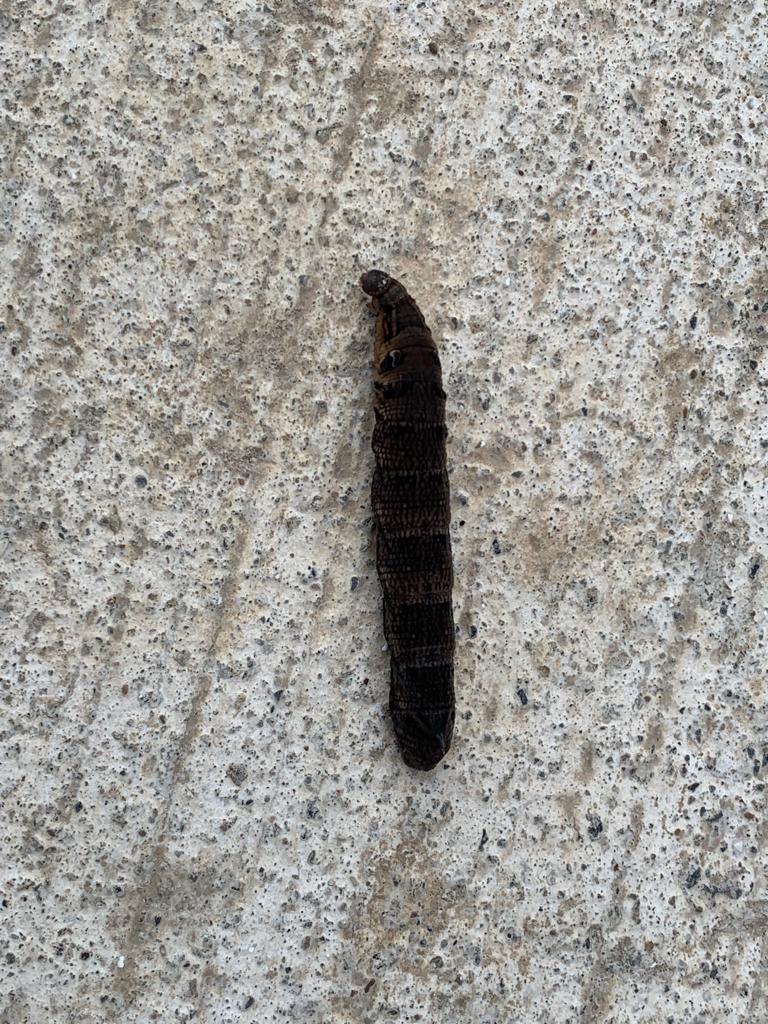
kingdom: Animalia
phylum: Arthropoda
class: Insecta
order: Lepidoptera
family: Sphingidae
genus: Deilephila
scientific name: Deilephila elpenor
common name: Elephant hawk-moth
